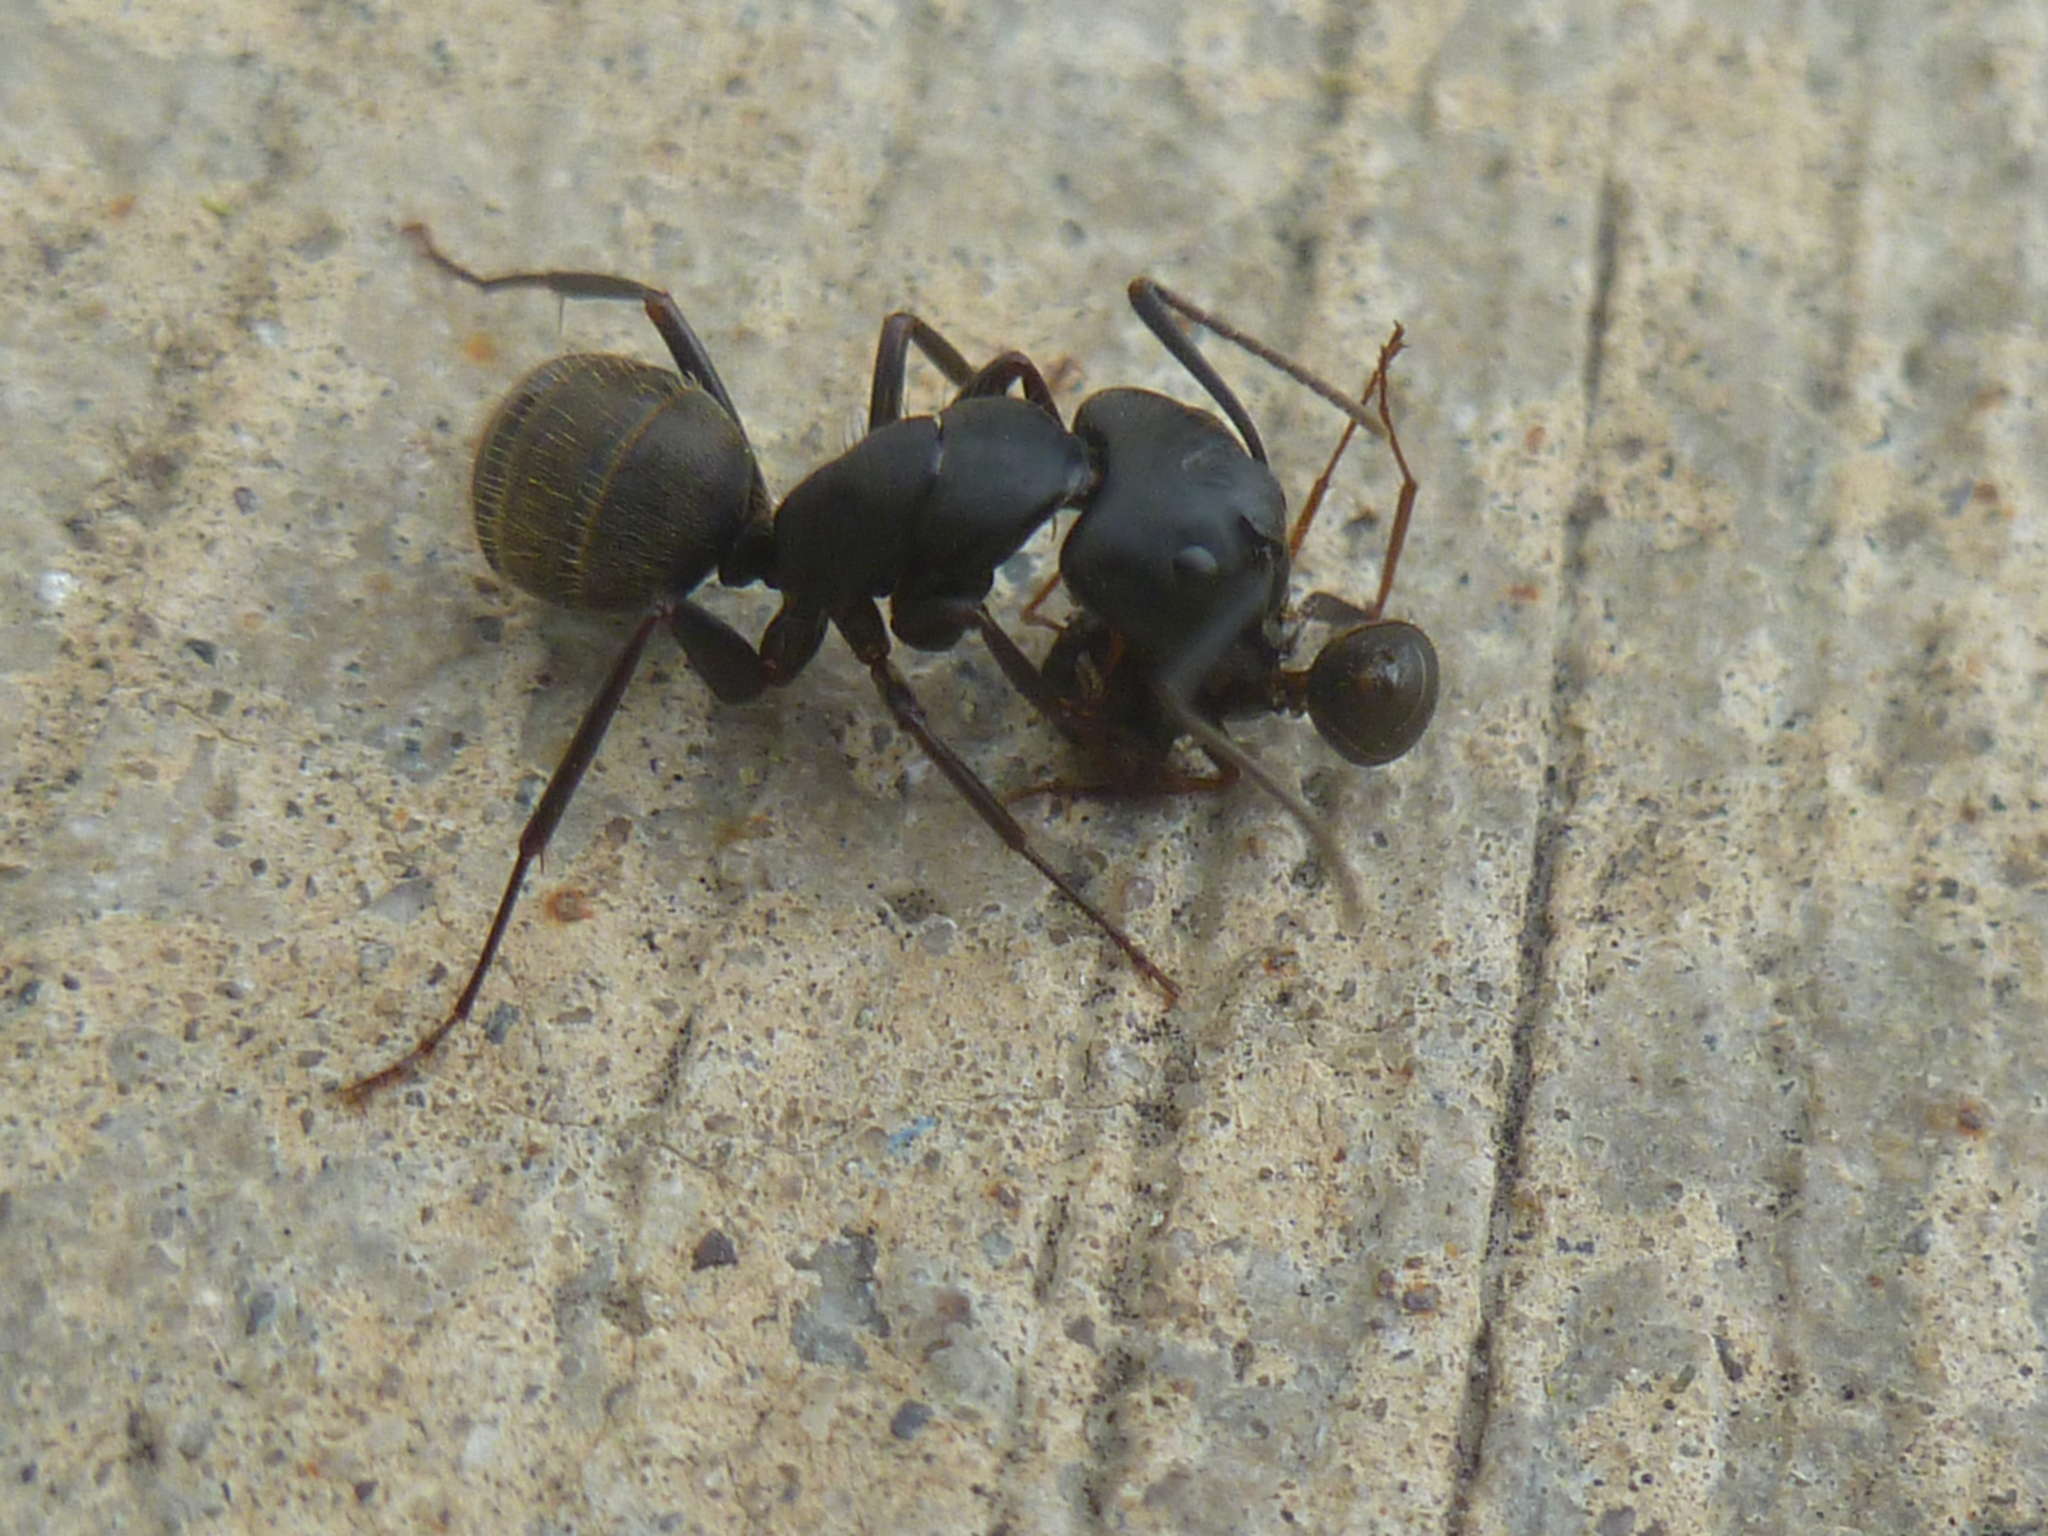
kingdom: Animalia
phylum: Arthropoda
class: Insecta
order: Hymenoptera
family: Formicidae
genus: Camponotus
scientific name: Camponotus pennsylvanicus
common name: Black carpenter ant
